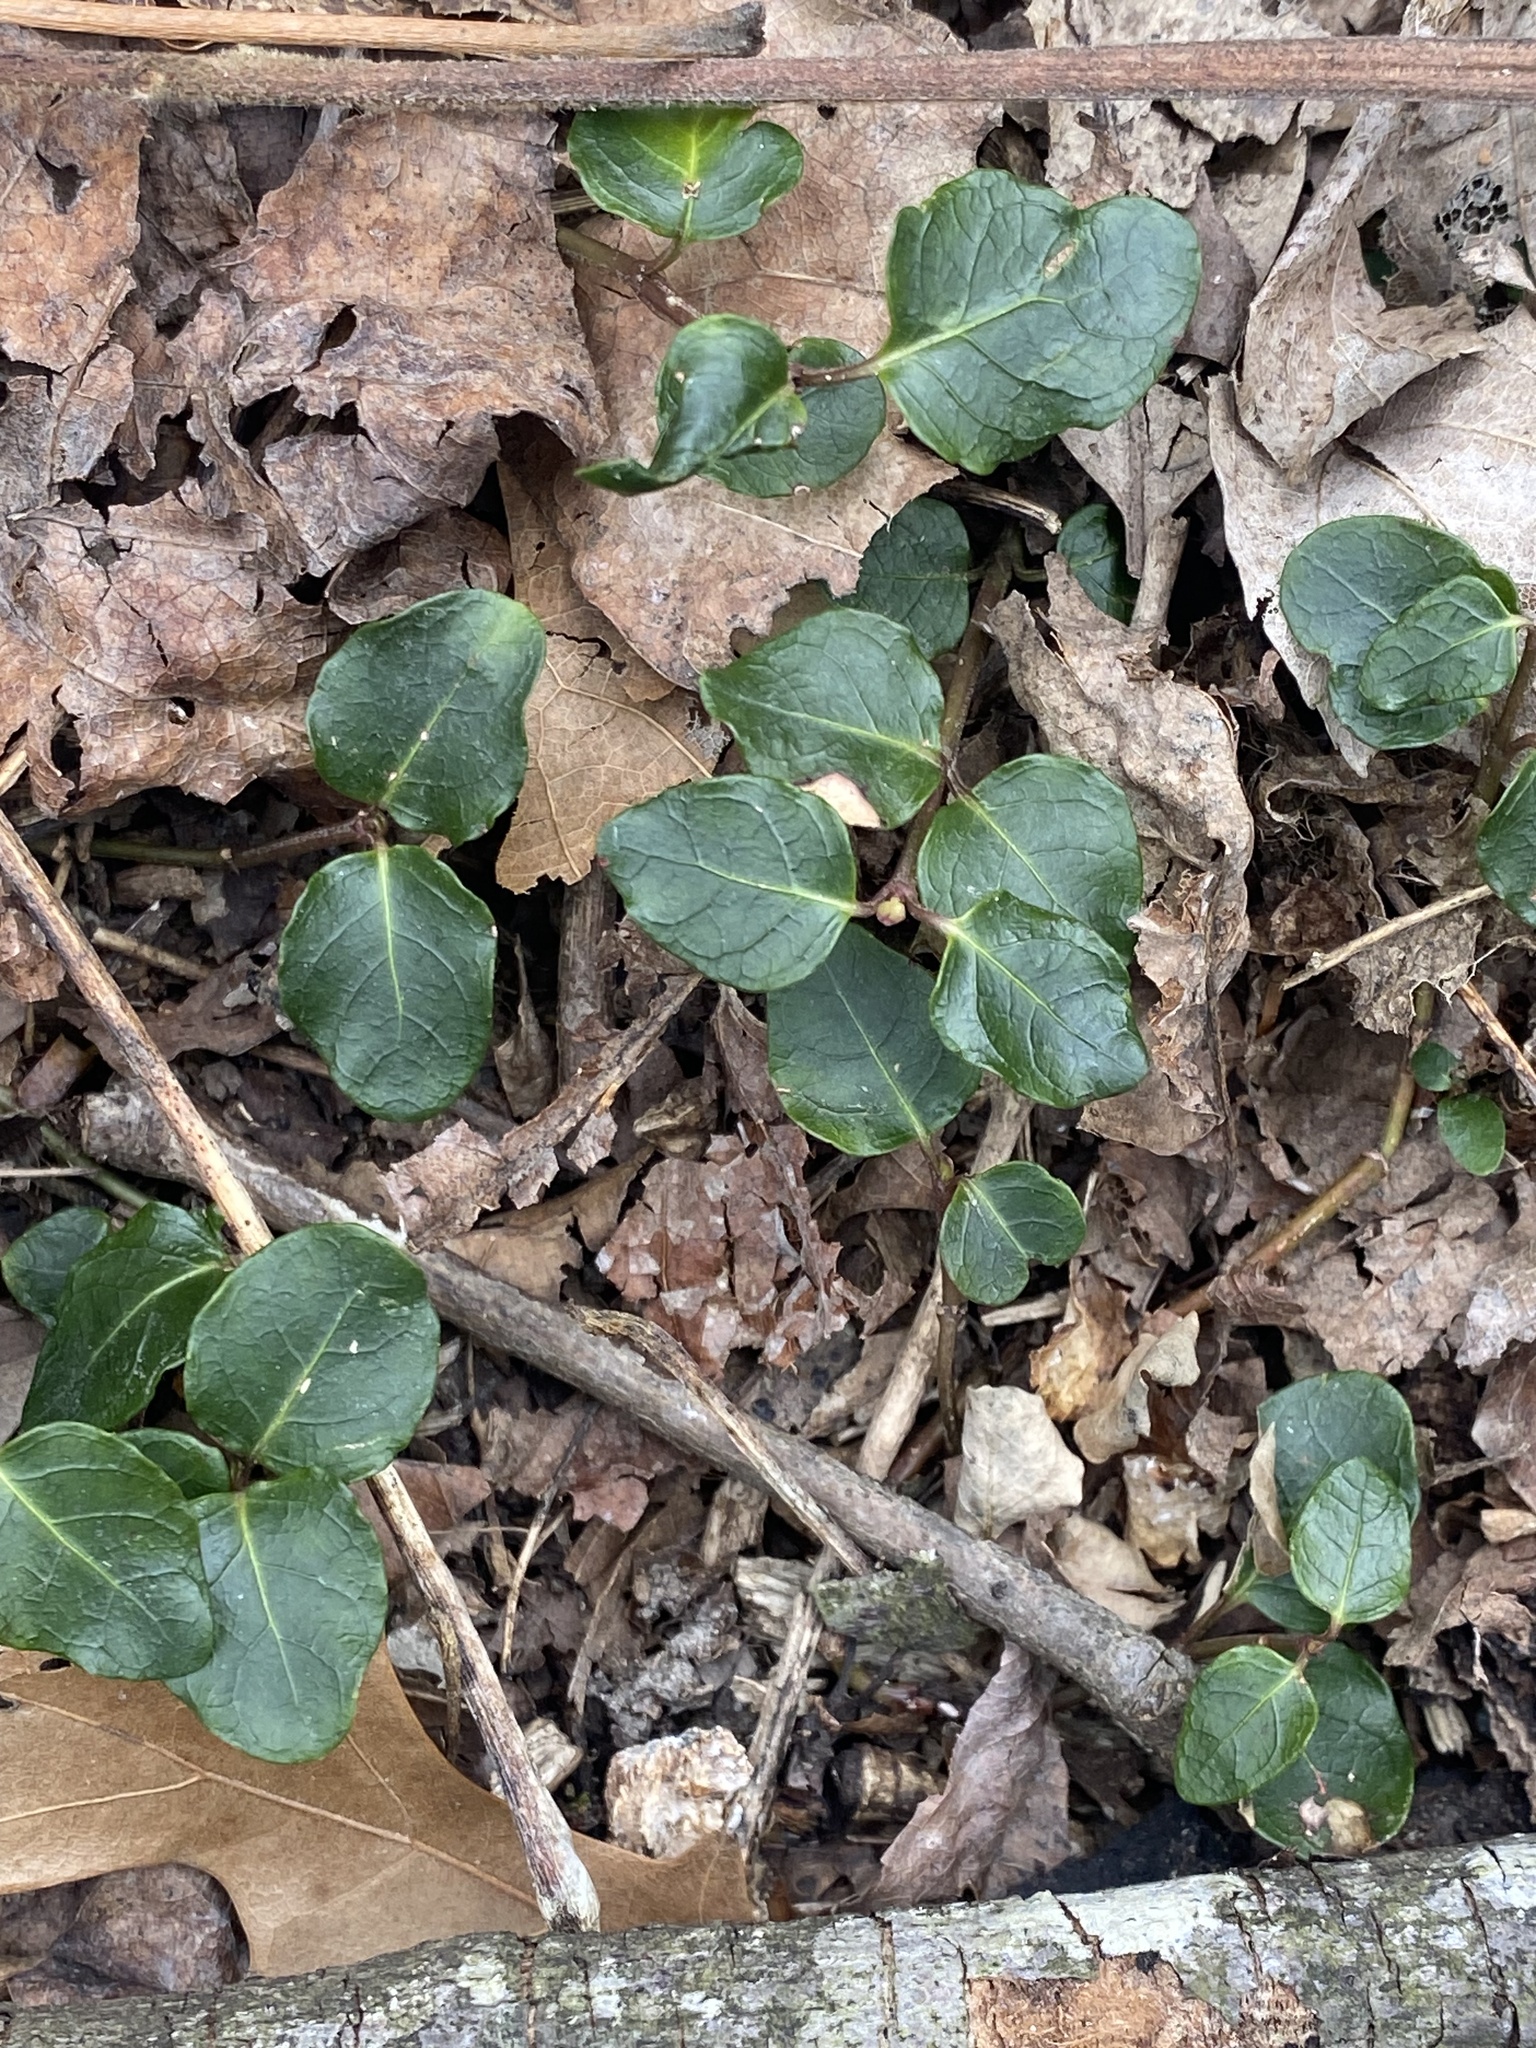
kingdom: Plantae
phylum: Tracheophyta
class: Magnoliopsida
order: Gentianales
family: Rubiaceae
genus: Mitchella
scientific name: Mitchella repens
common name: Partridge-berry
